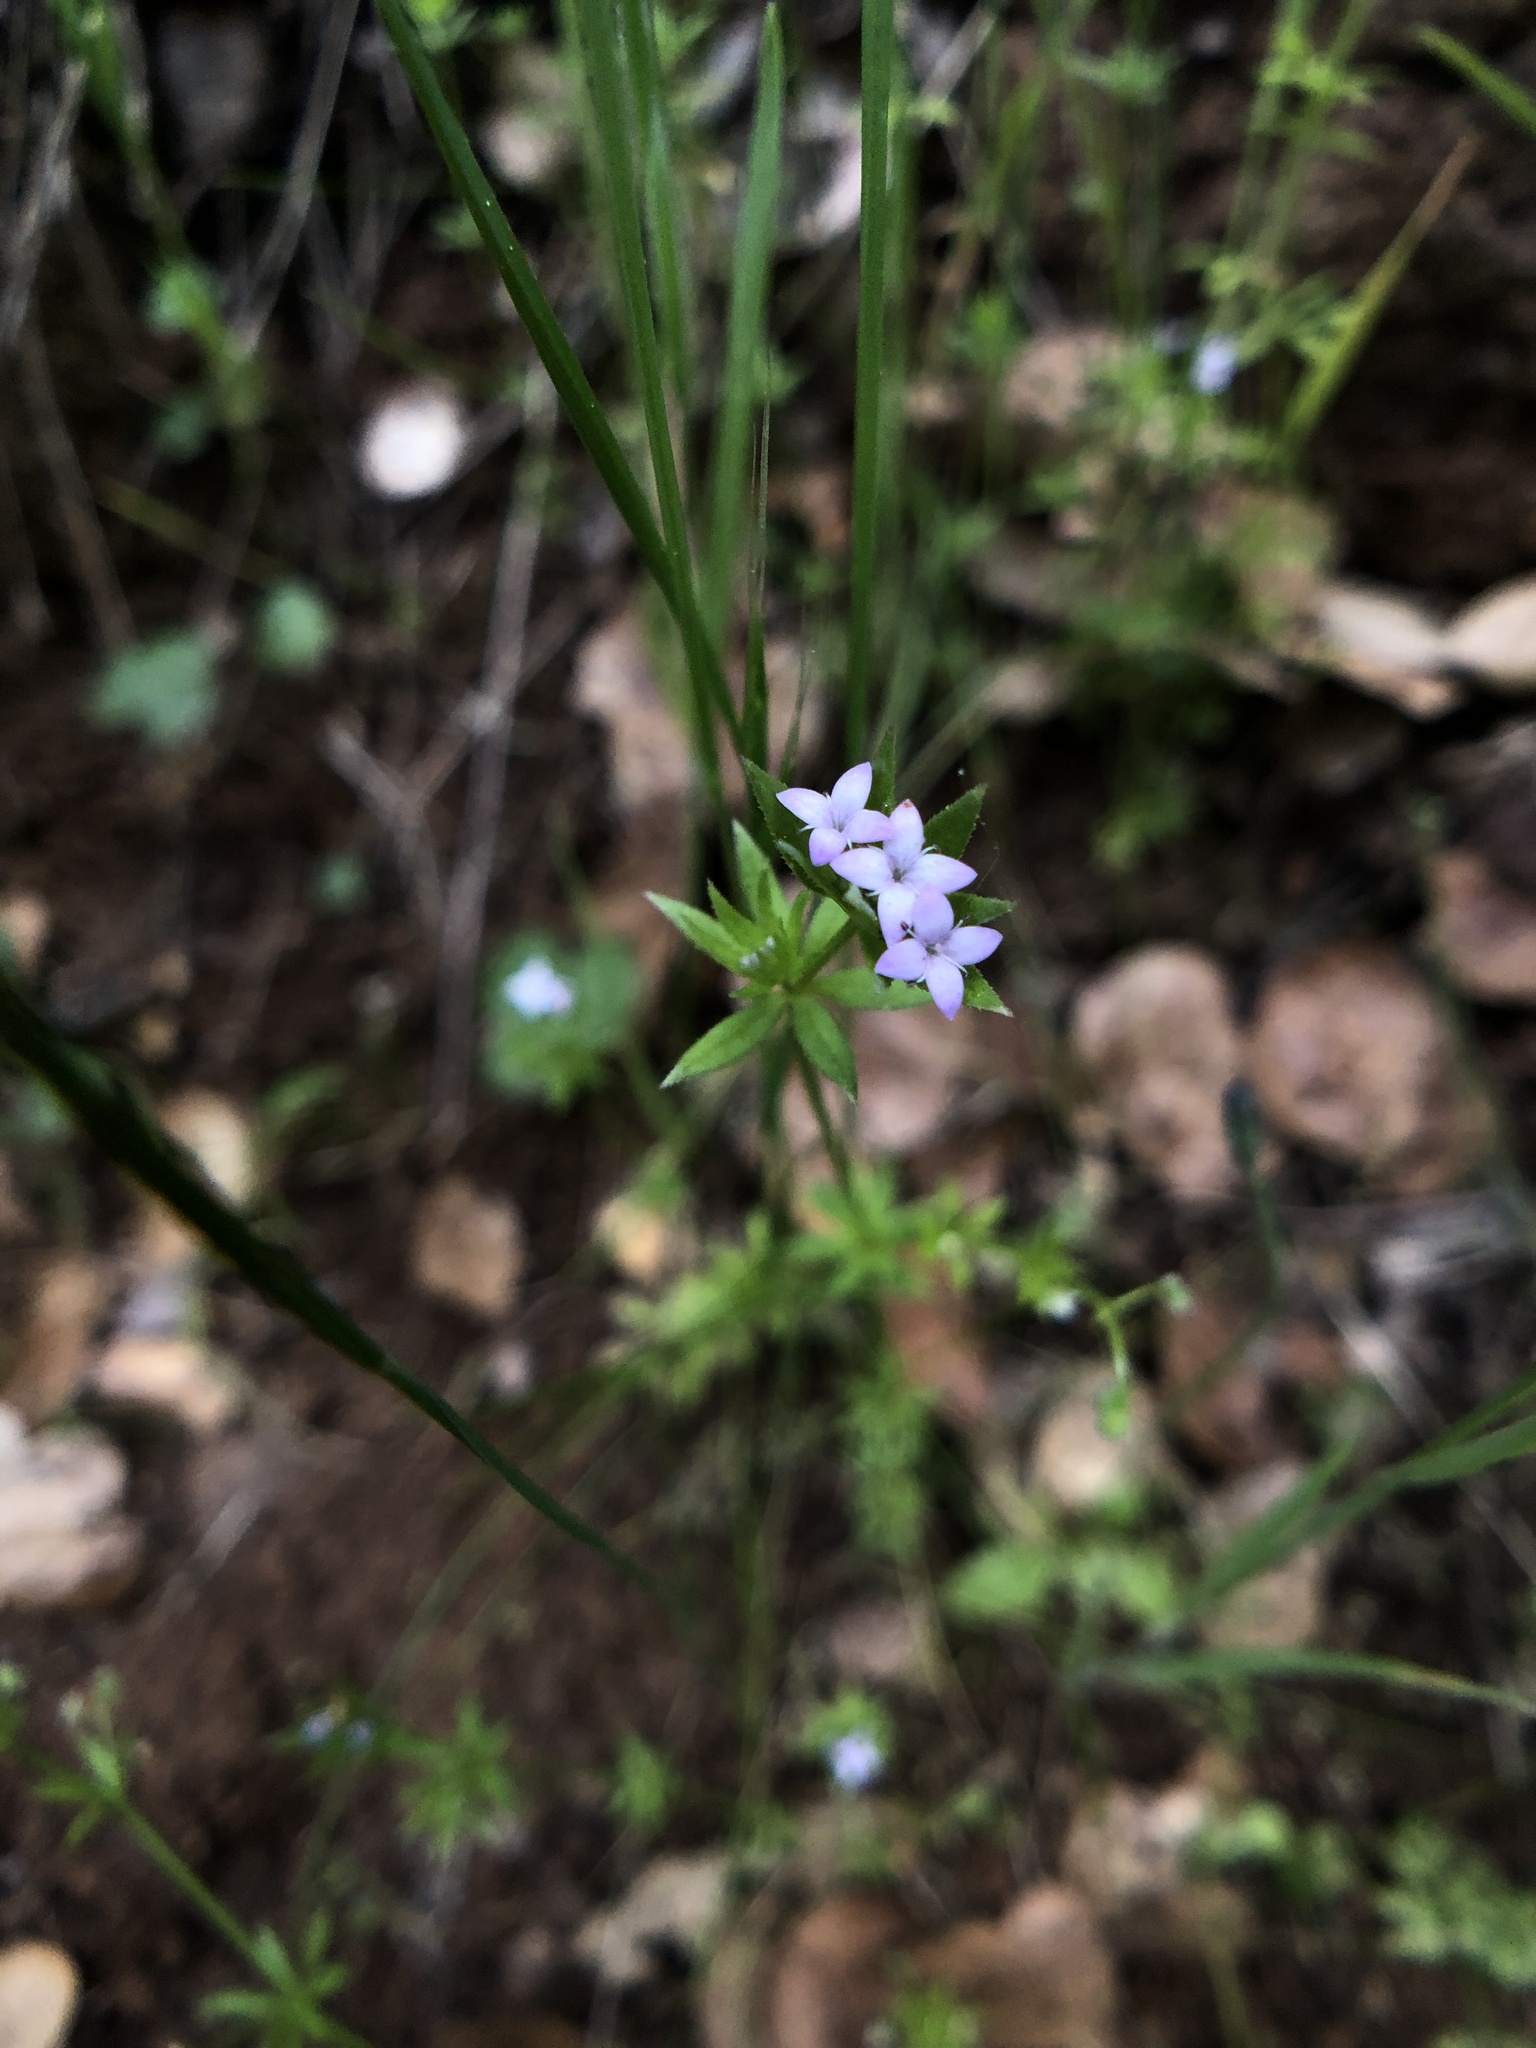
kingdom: Plantae
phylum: Tracheophyta
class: Magnoliopsida
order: Gentianales
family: Rubiaceae
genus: Sherardia
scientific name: Sherardia arvensis
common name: Field madder
